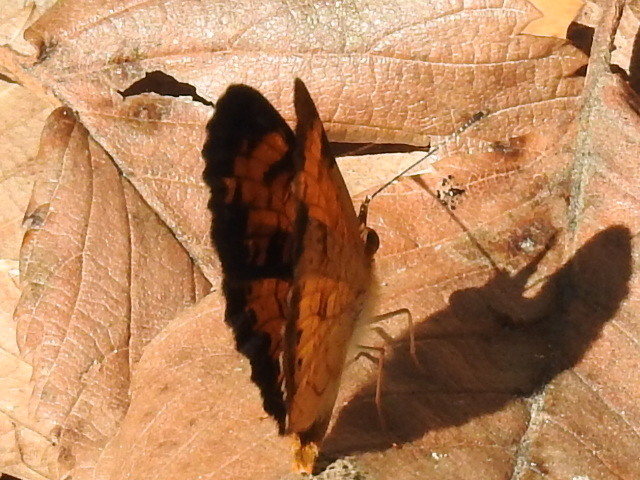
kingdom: Animalia
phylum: Arthropoda
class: Insecta
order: Lepidoptera
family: Nymphalidae
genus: Phyciodes
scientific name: Phyciodes tharos
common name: Pearl crescent
